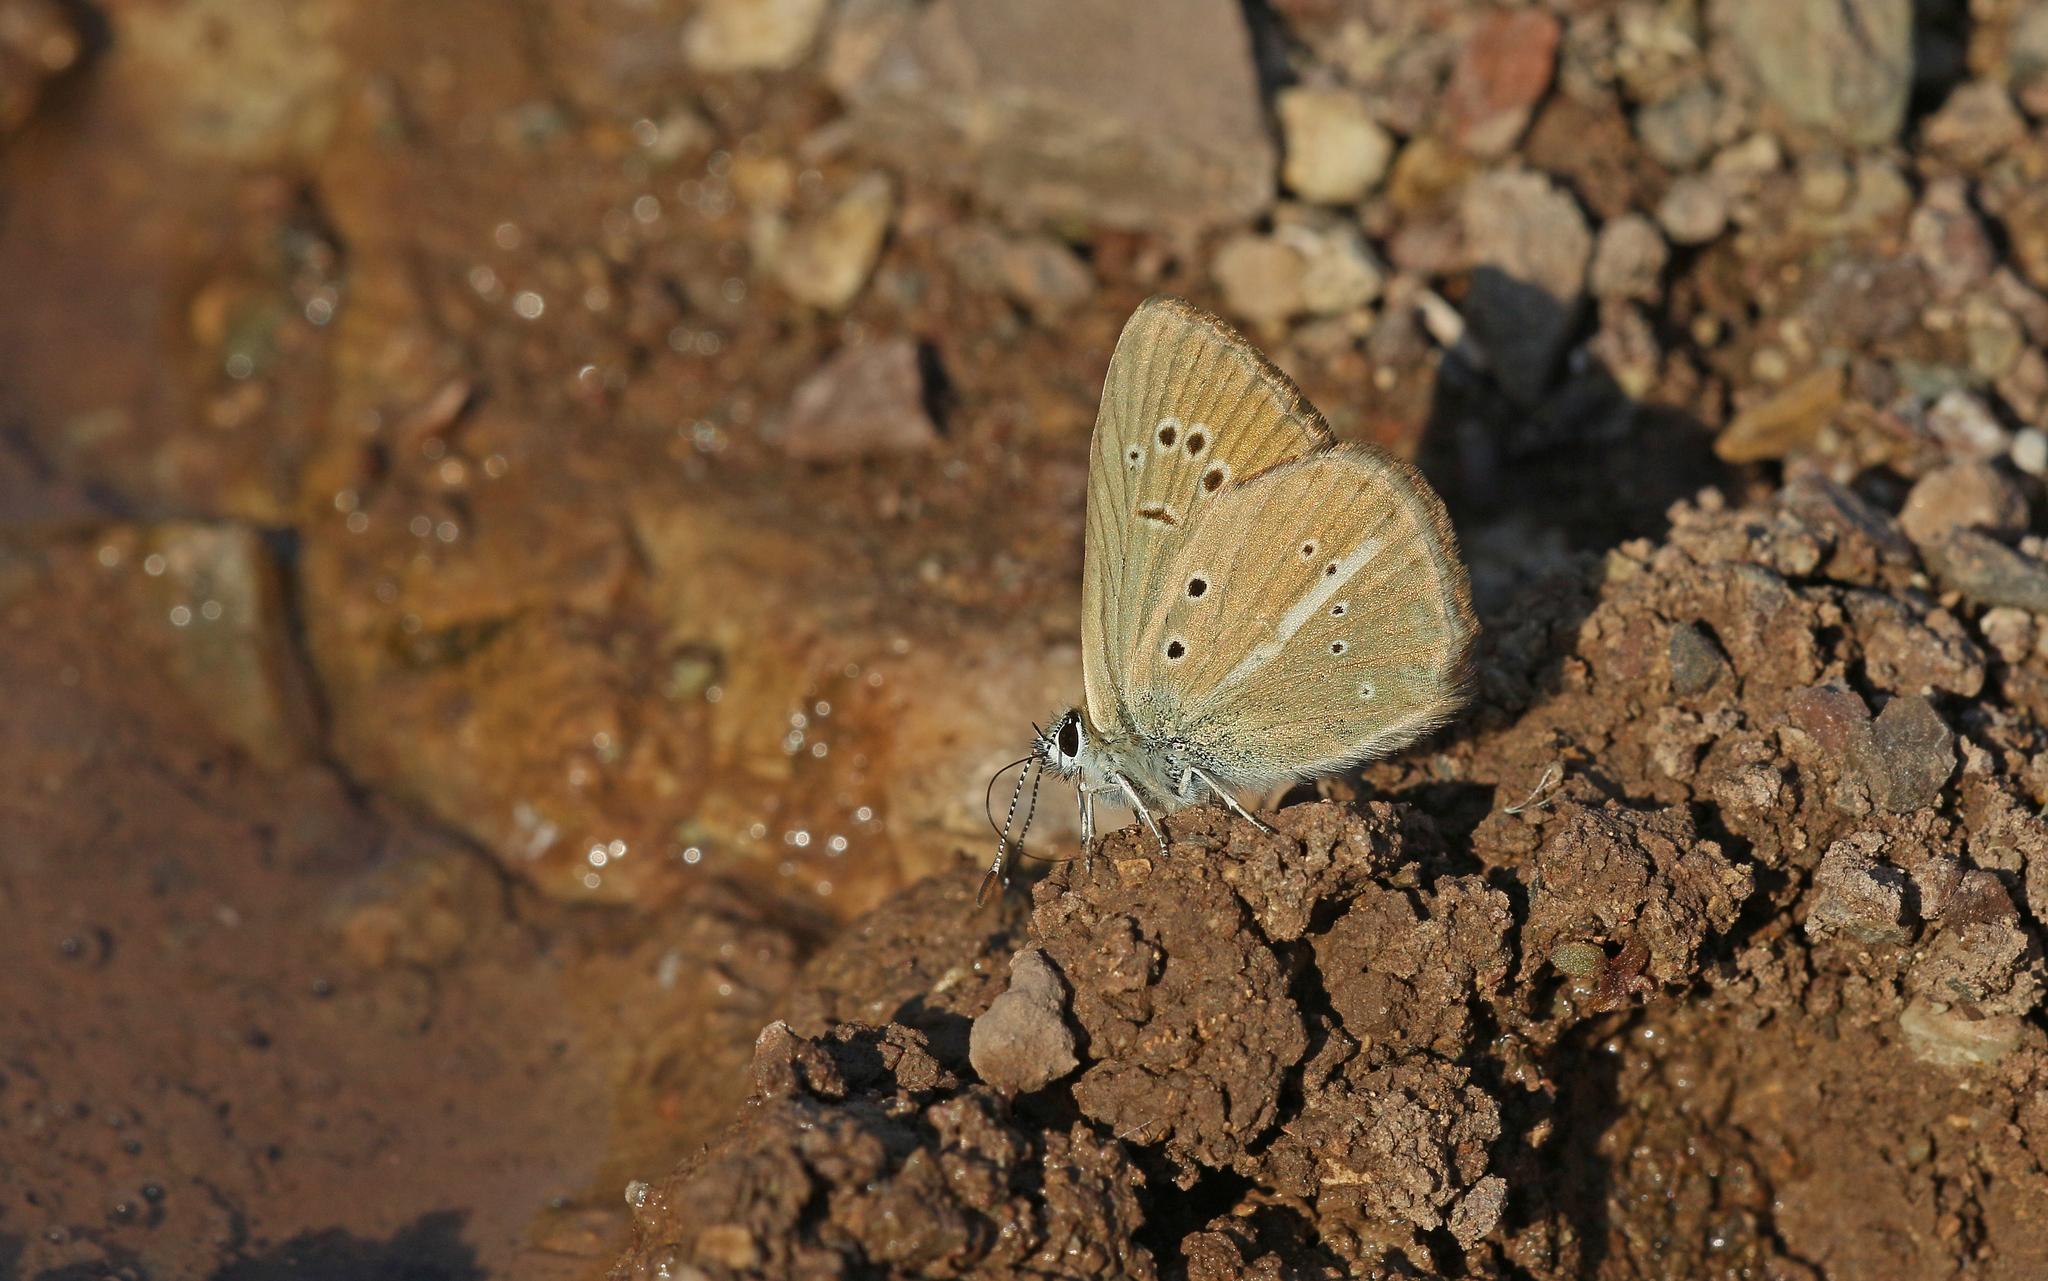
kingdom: Animalia
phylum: Arthropoda
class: Insecta
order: Lepidoptera
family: Lycaenidae
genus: Polyommatus
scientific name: Polyommatus ripartii
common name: Ripart's anomalous blue
